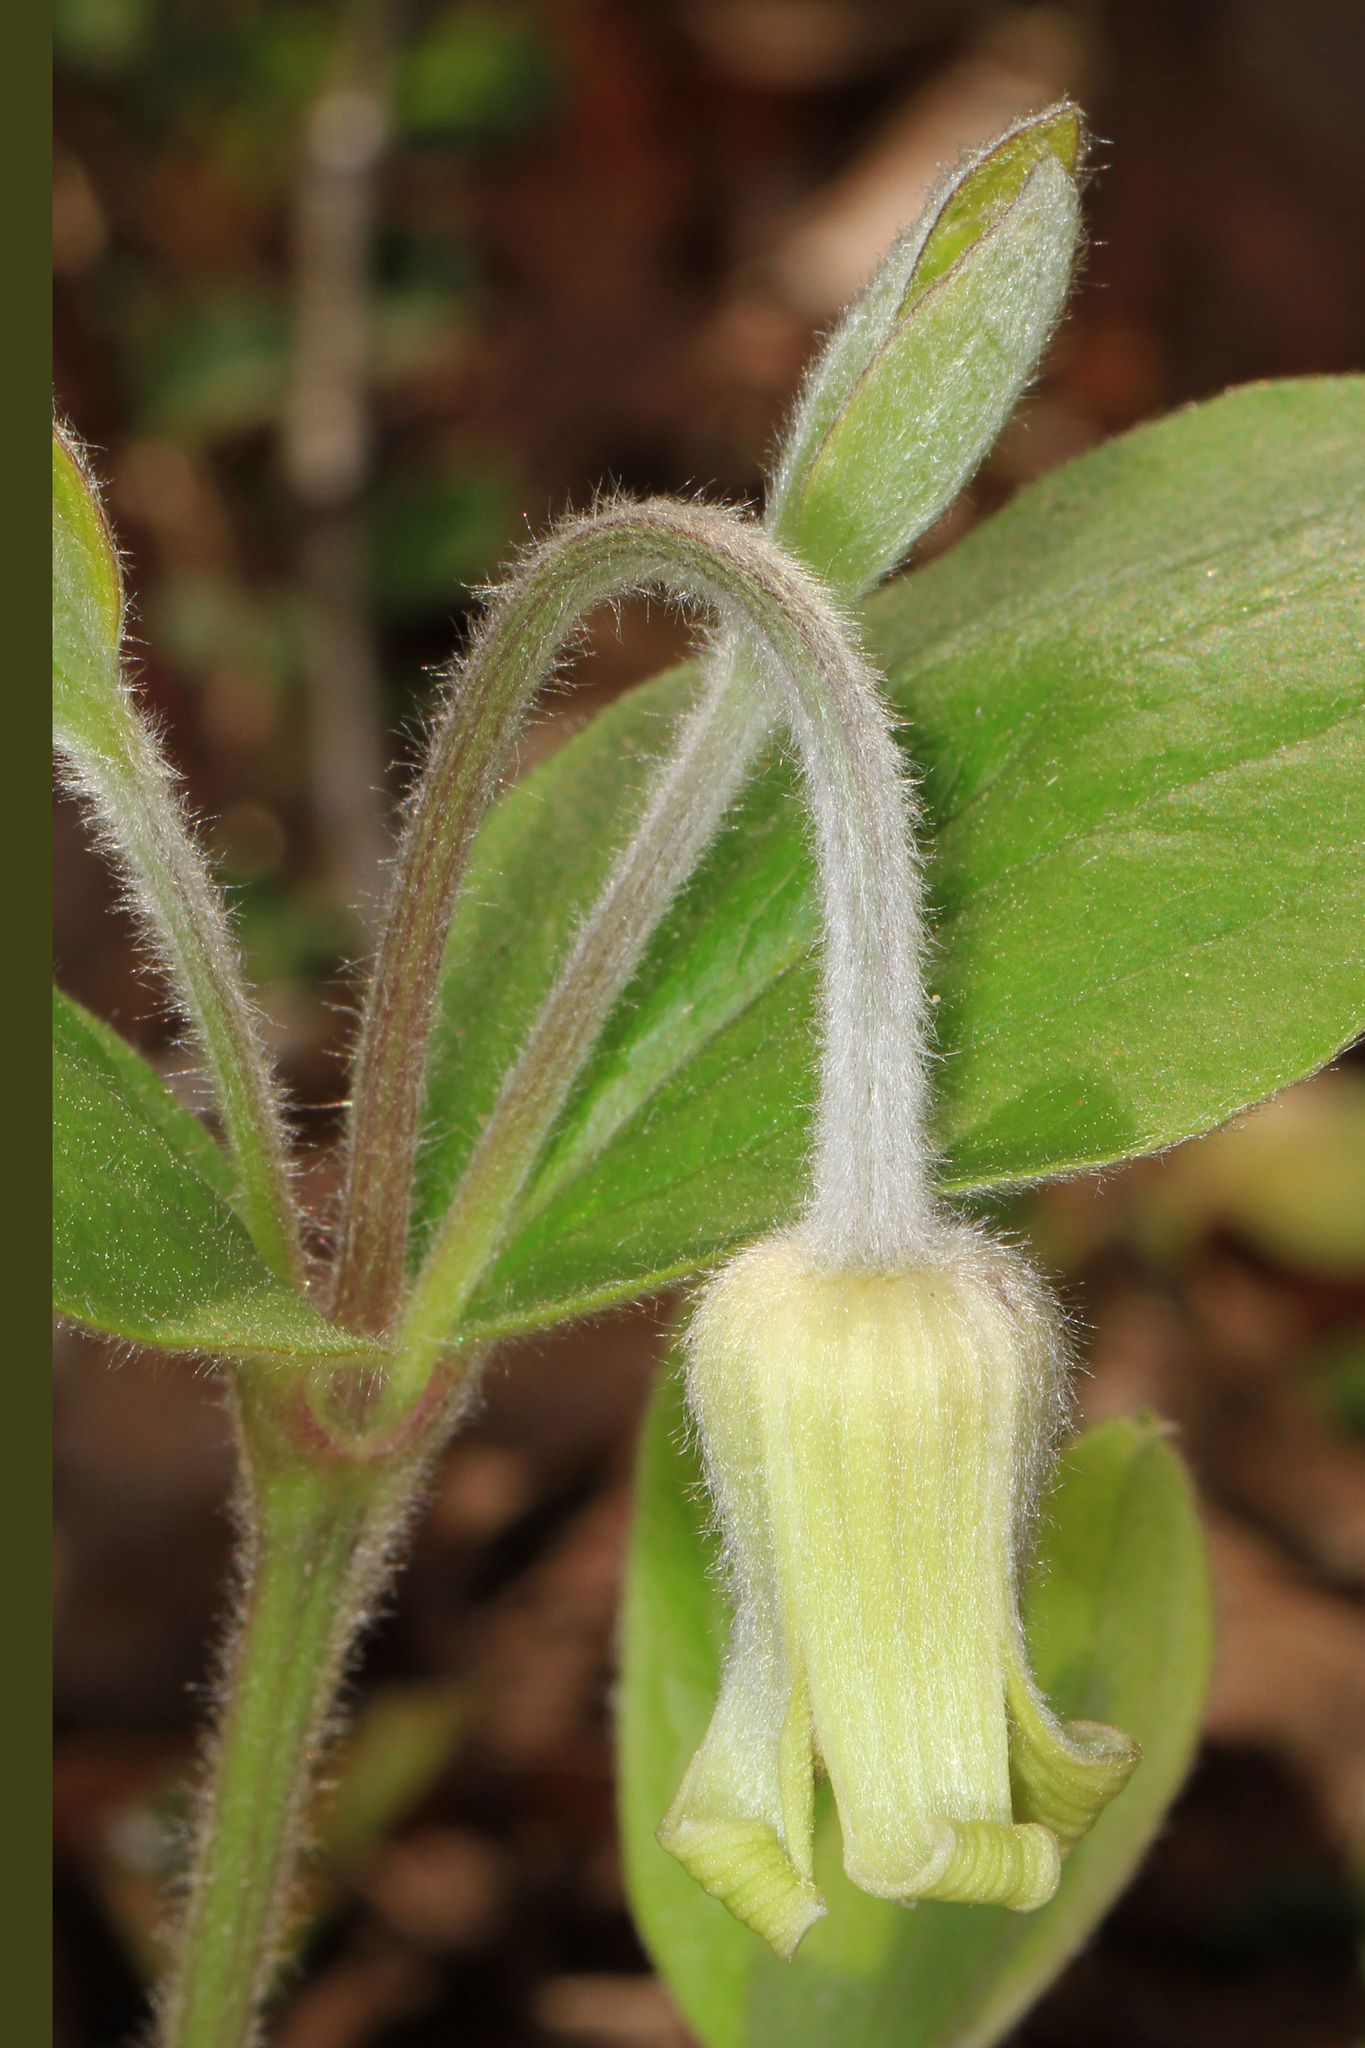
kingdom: Plantae
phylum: Tracheophyta
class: Magnoliopsida
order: Ranunculales
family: Ranunculaceae
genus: Clematis
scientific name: Clematis ochroleuca
